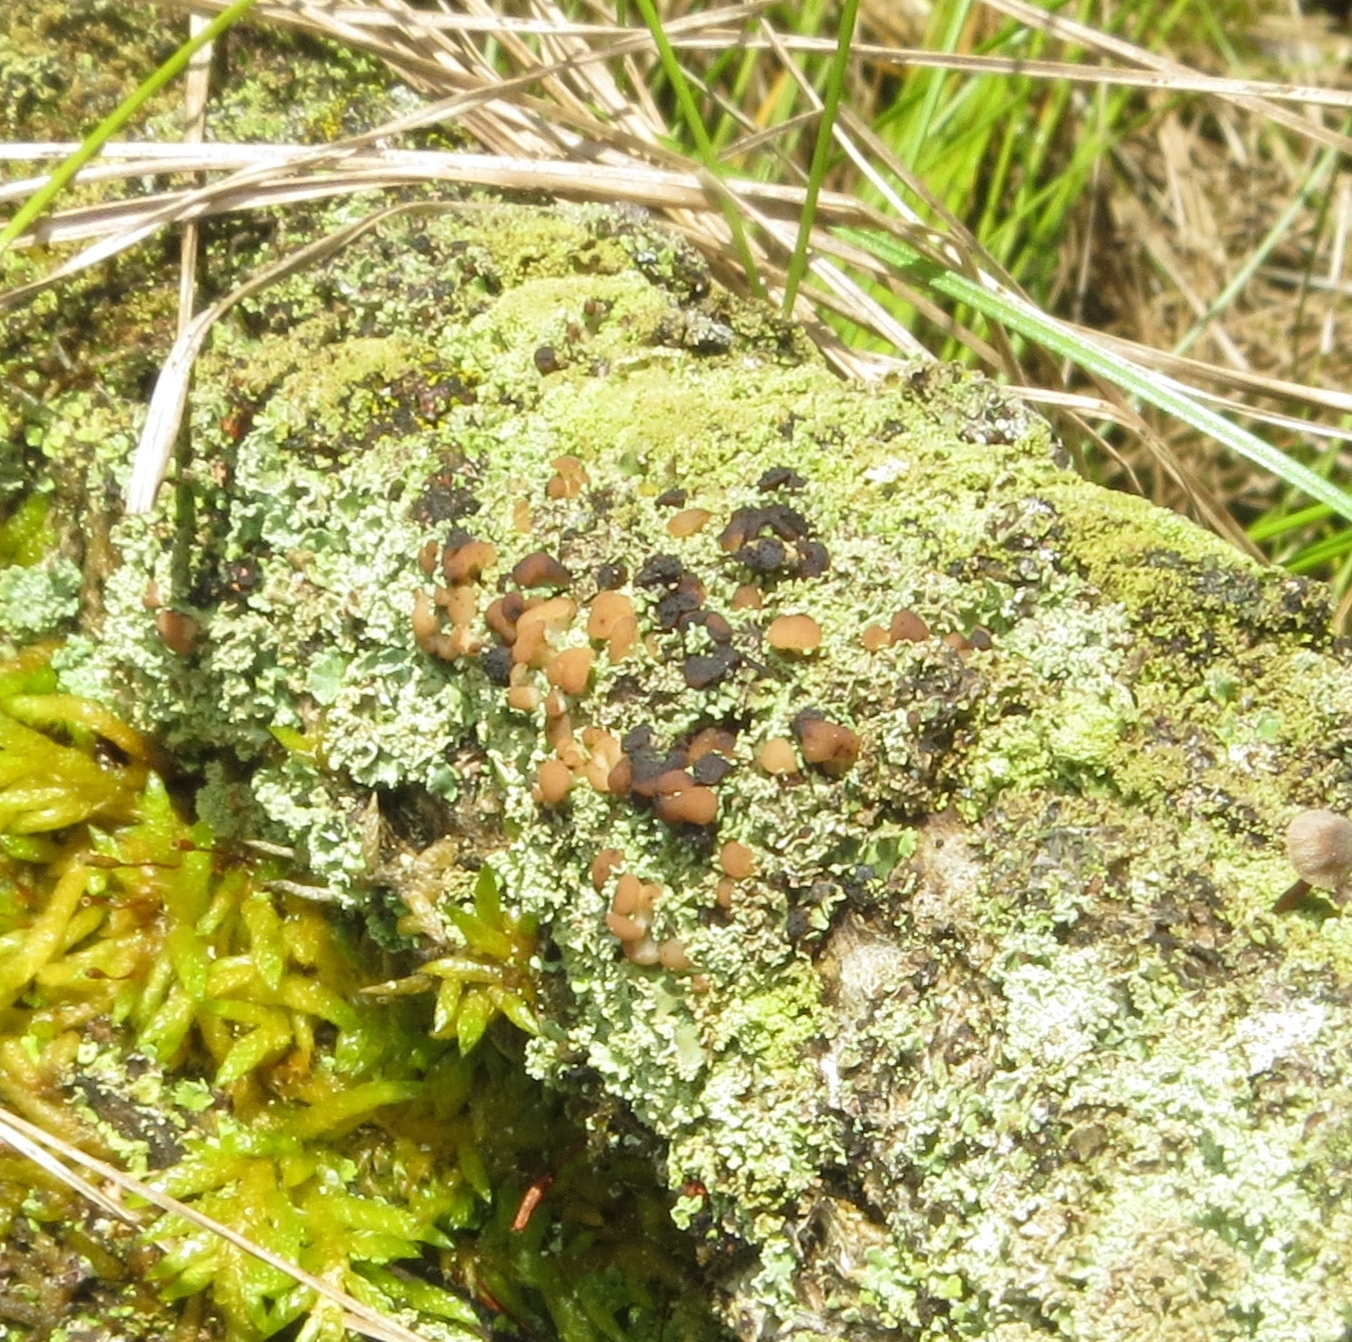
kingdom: Fungi
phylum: Ascomycota
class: Lecanoromycetes
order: Lecanorales
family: Cladoniaceae
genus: Cladonia
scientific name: Cladonia caespiticia
